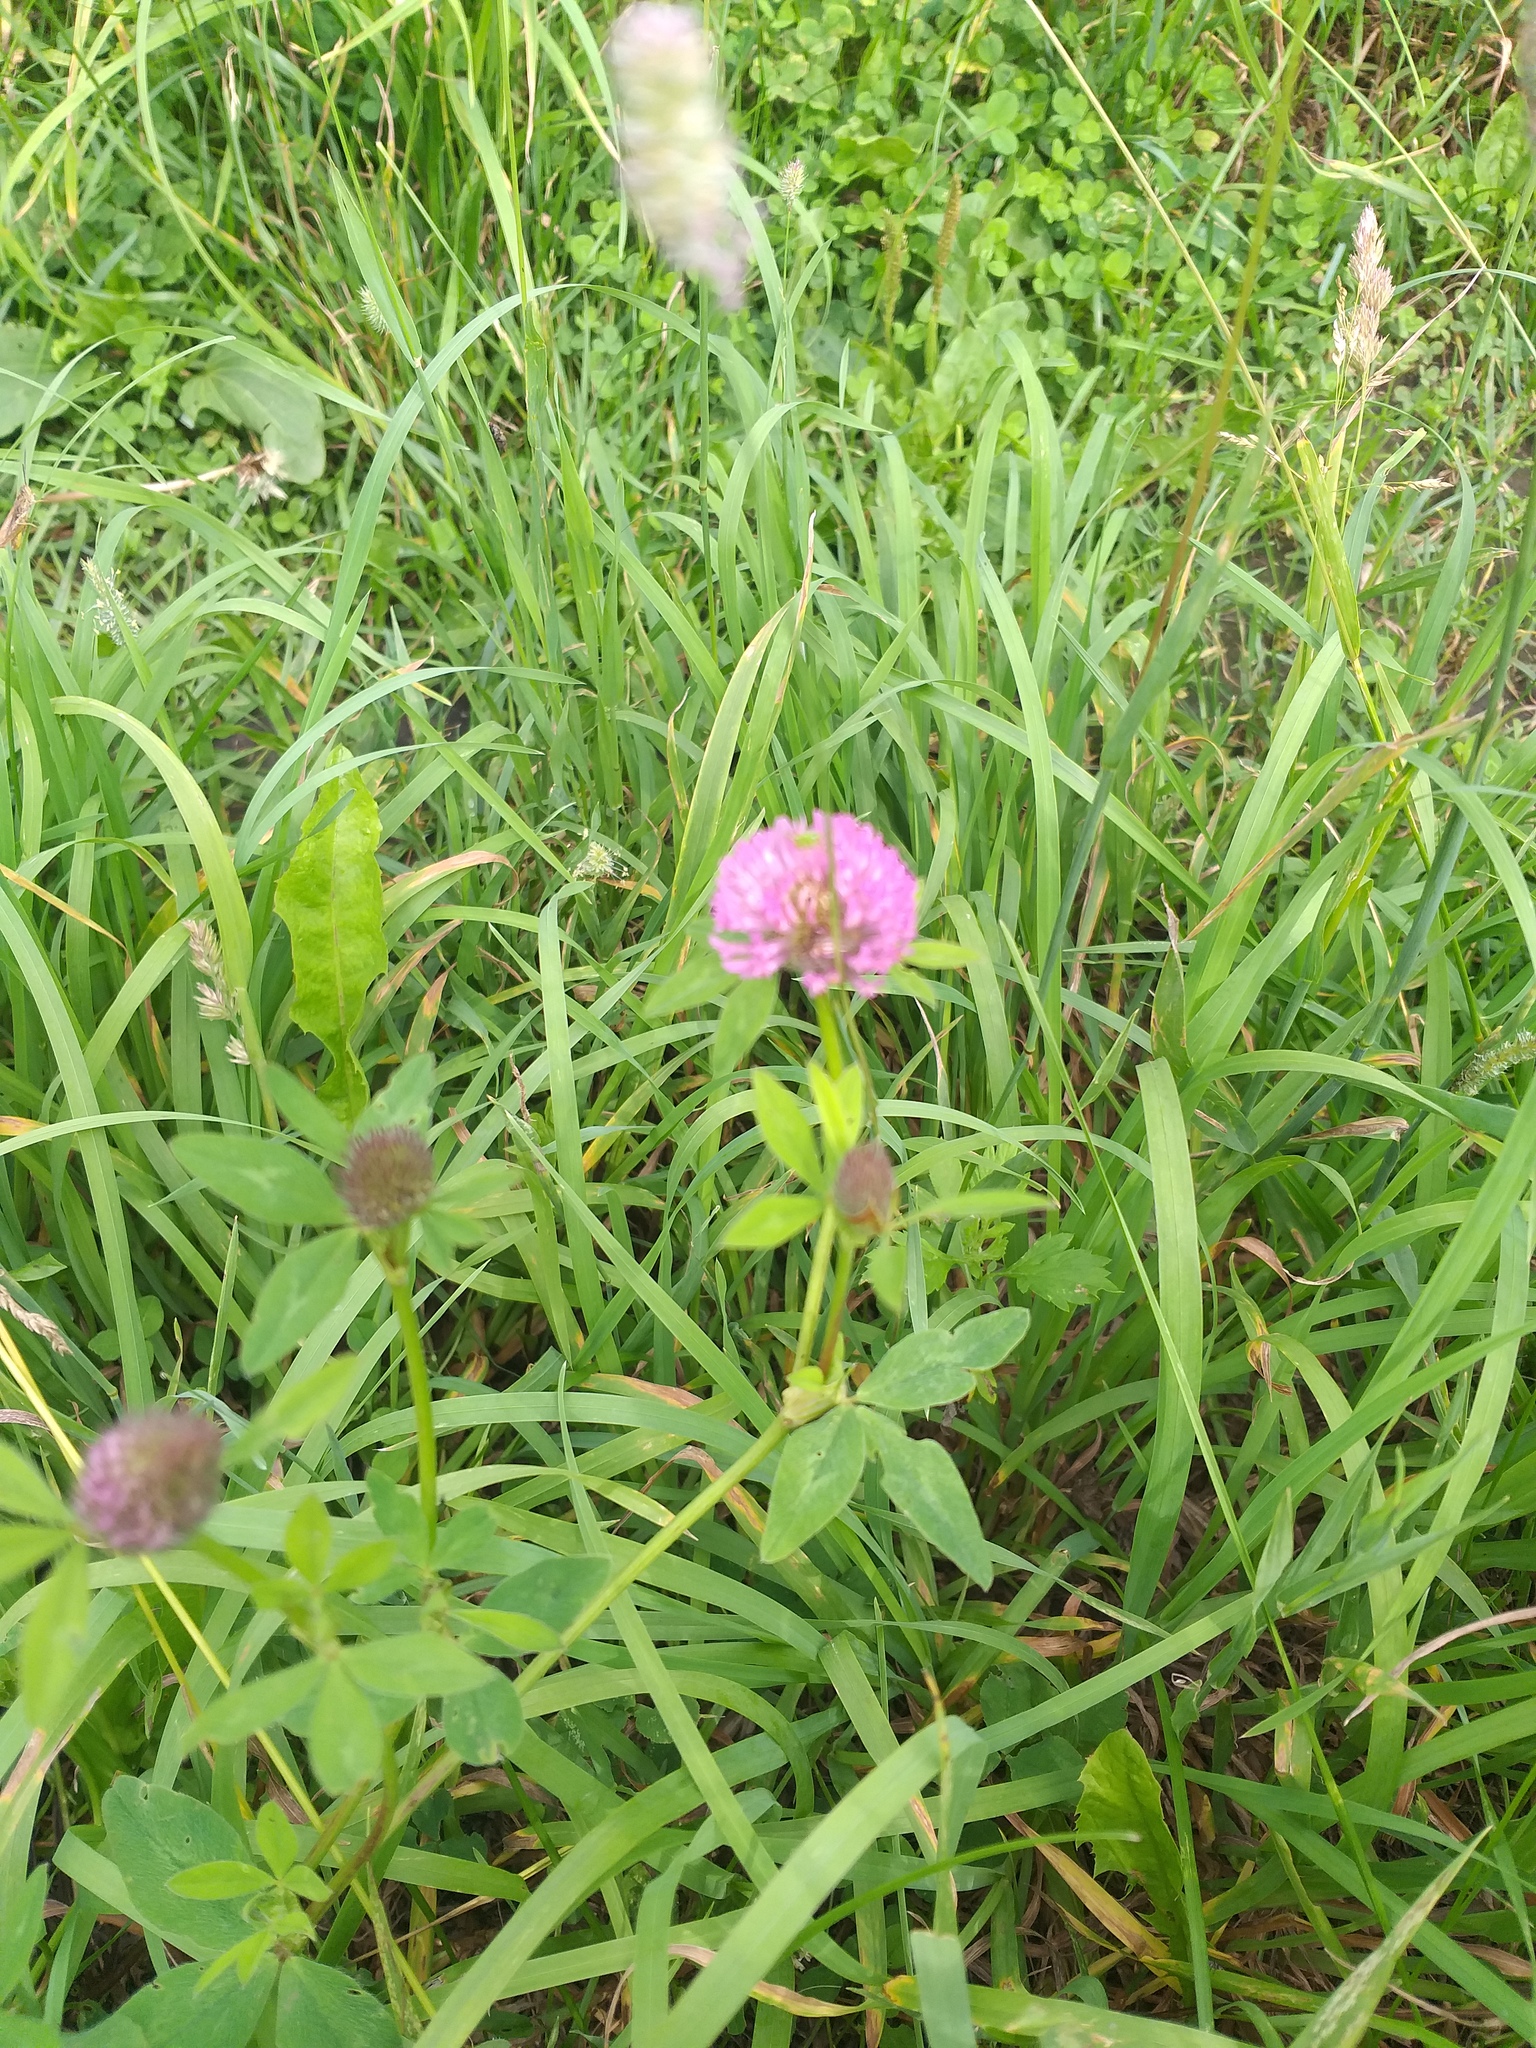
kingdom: Plantae
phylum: Tracheophyta
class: Magnoliopsida
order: Fabales
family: Fabaceae
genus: Trifolium
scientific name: Trifolium pratense
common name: Red clover
